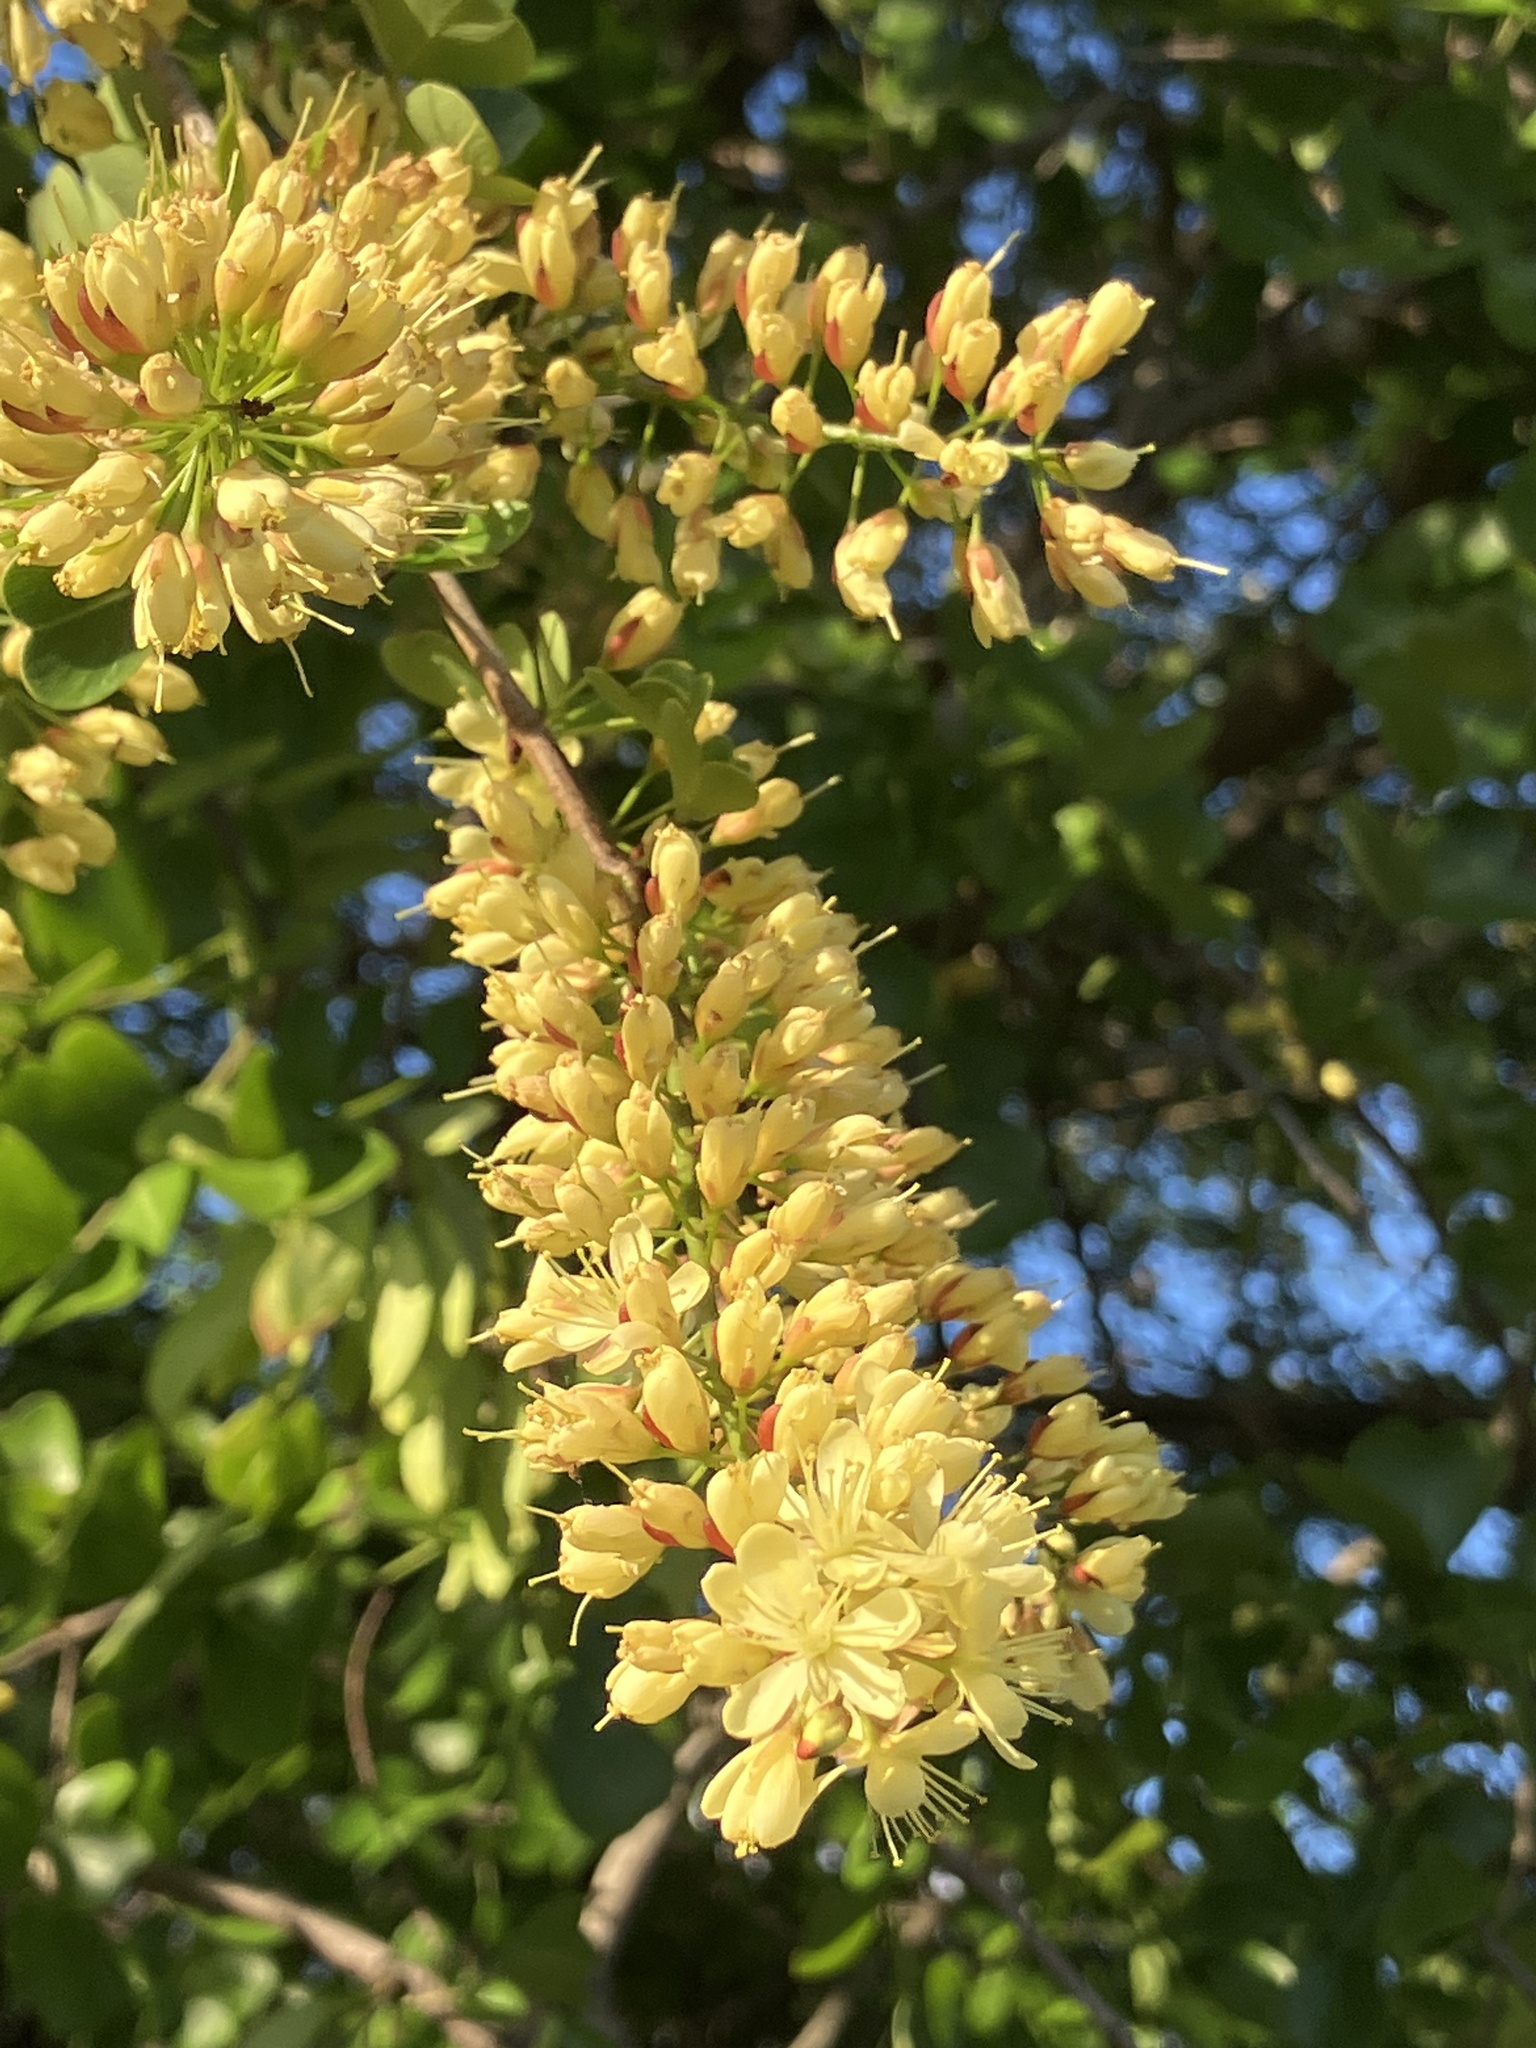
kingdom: Plantae
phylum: Tracheophyta
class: Magnoliopsida
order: Fabales
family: Fabaceae
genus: Haematoxylum
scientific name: Haematoxylum campechianum
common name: Logwood
